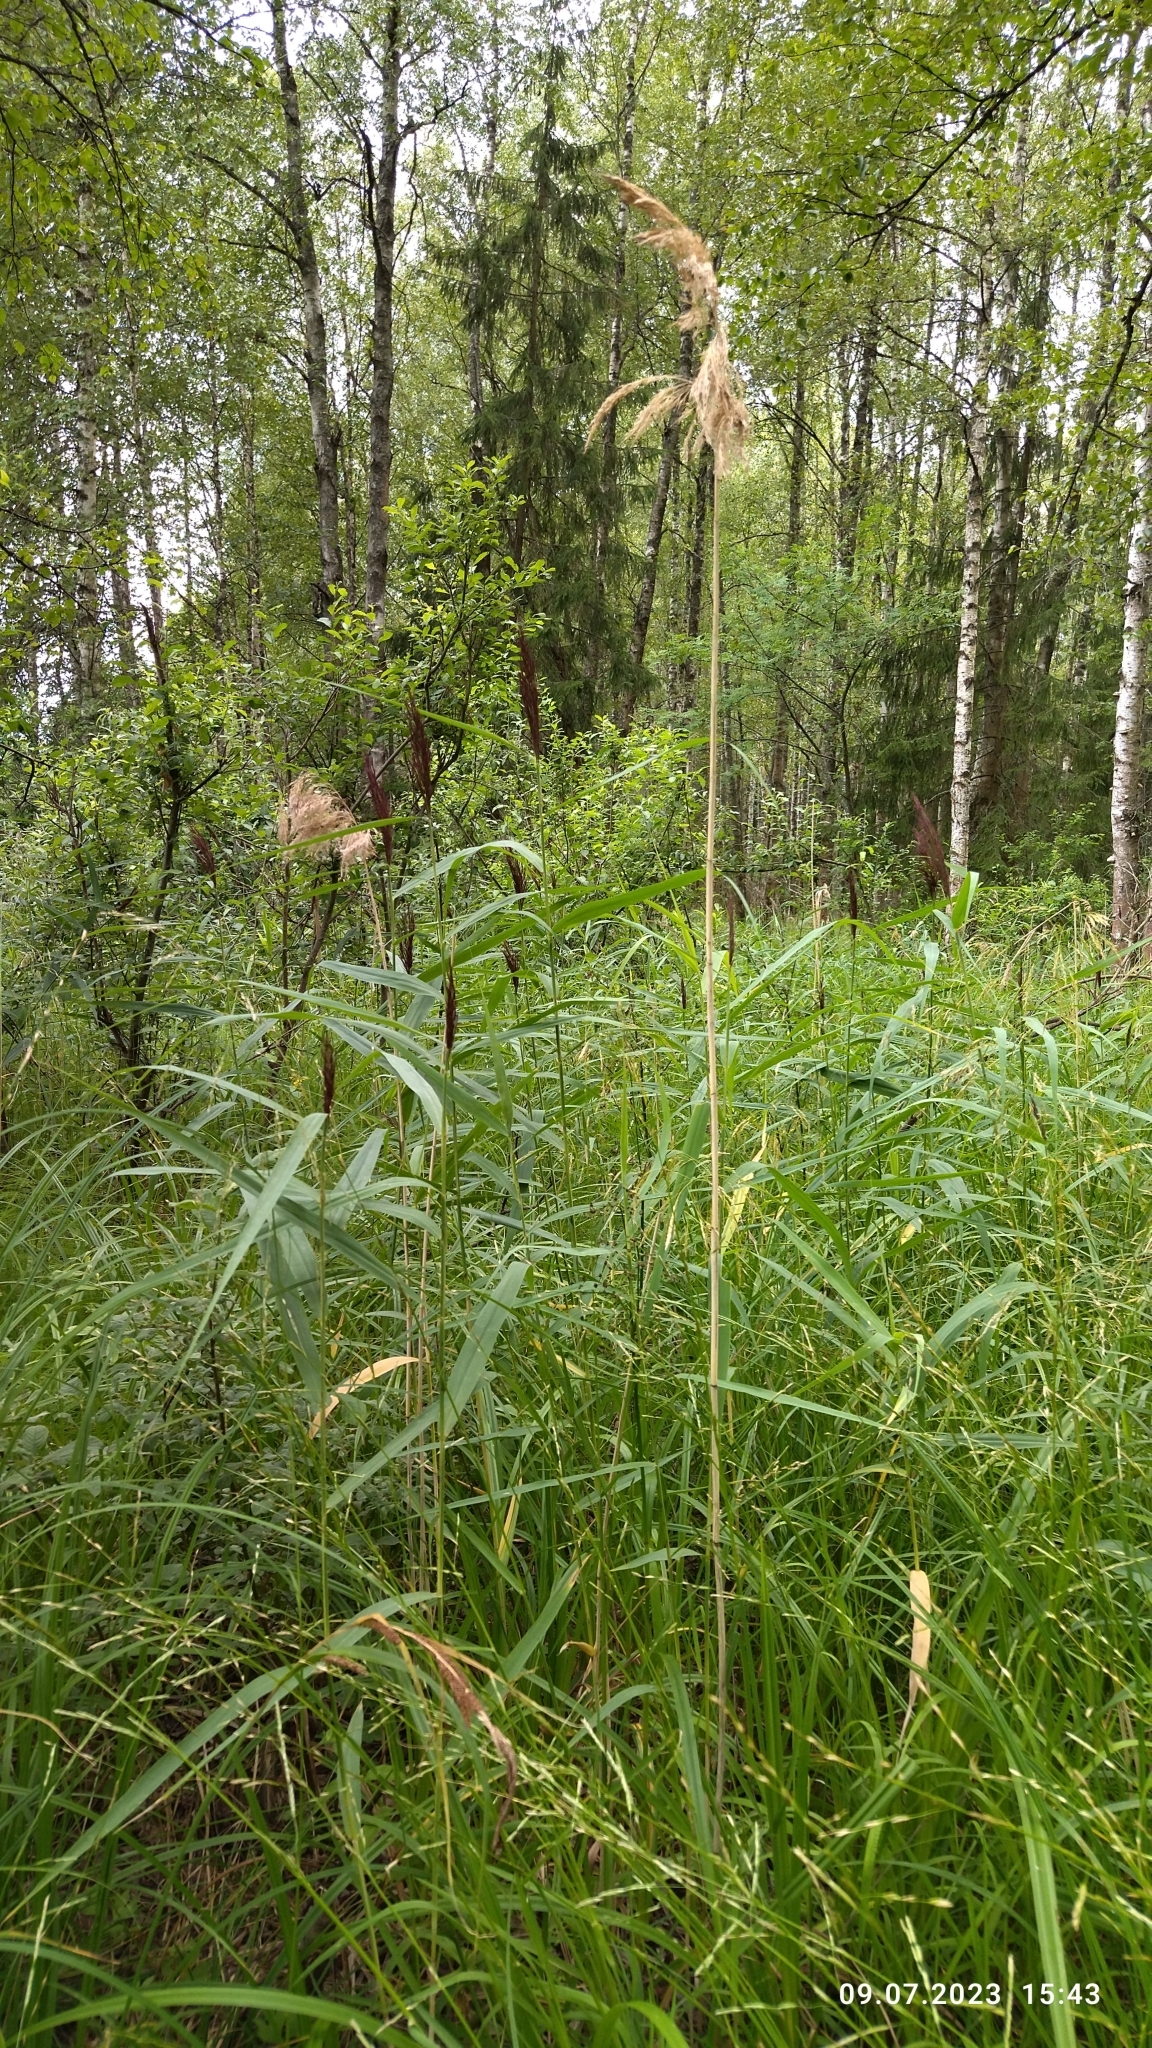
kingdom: Plantae
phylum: Tracheophyta
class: Liliopsida
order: Poales
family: Poaceae
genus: Phragmites
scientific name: Phragmites australis
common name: Common reed
